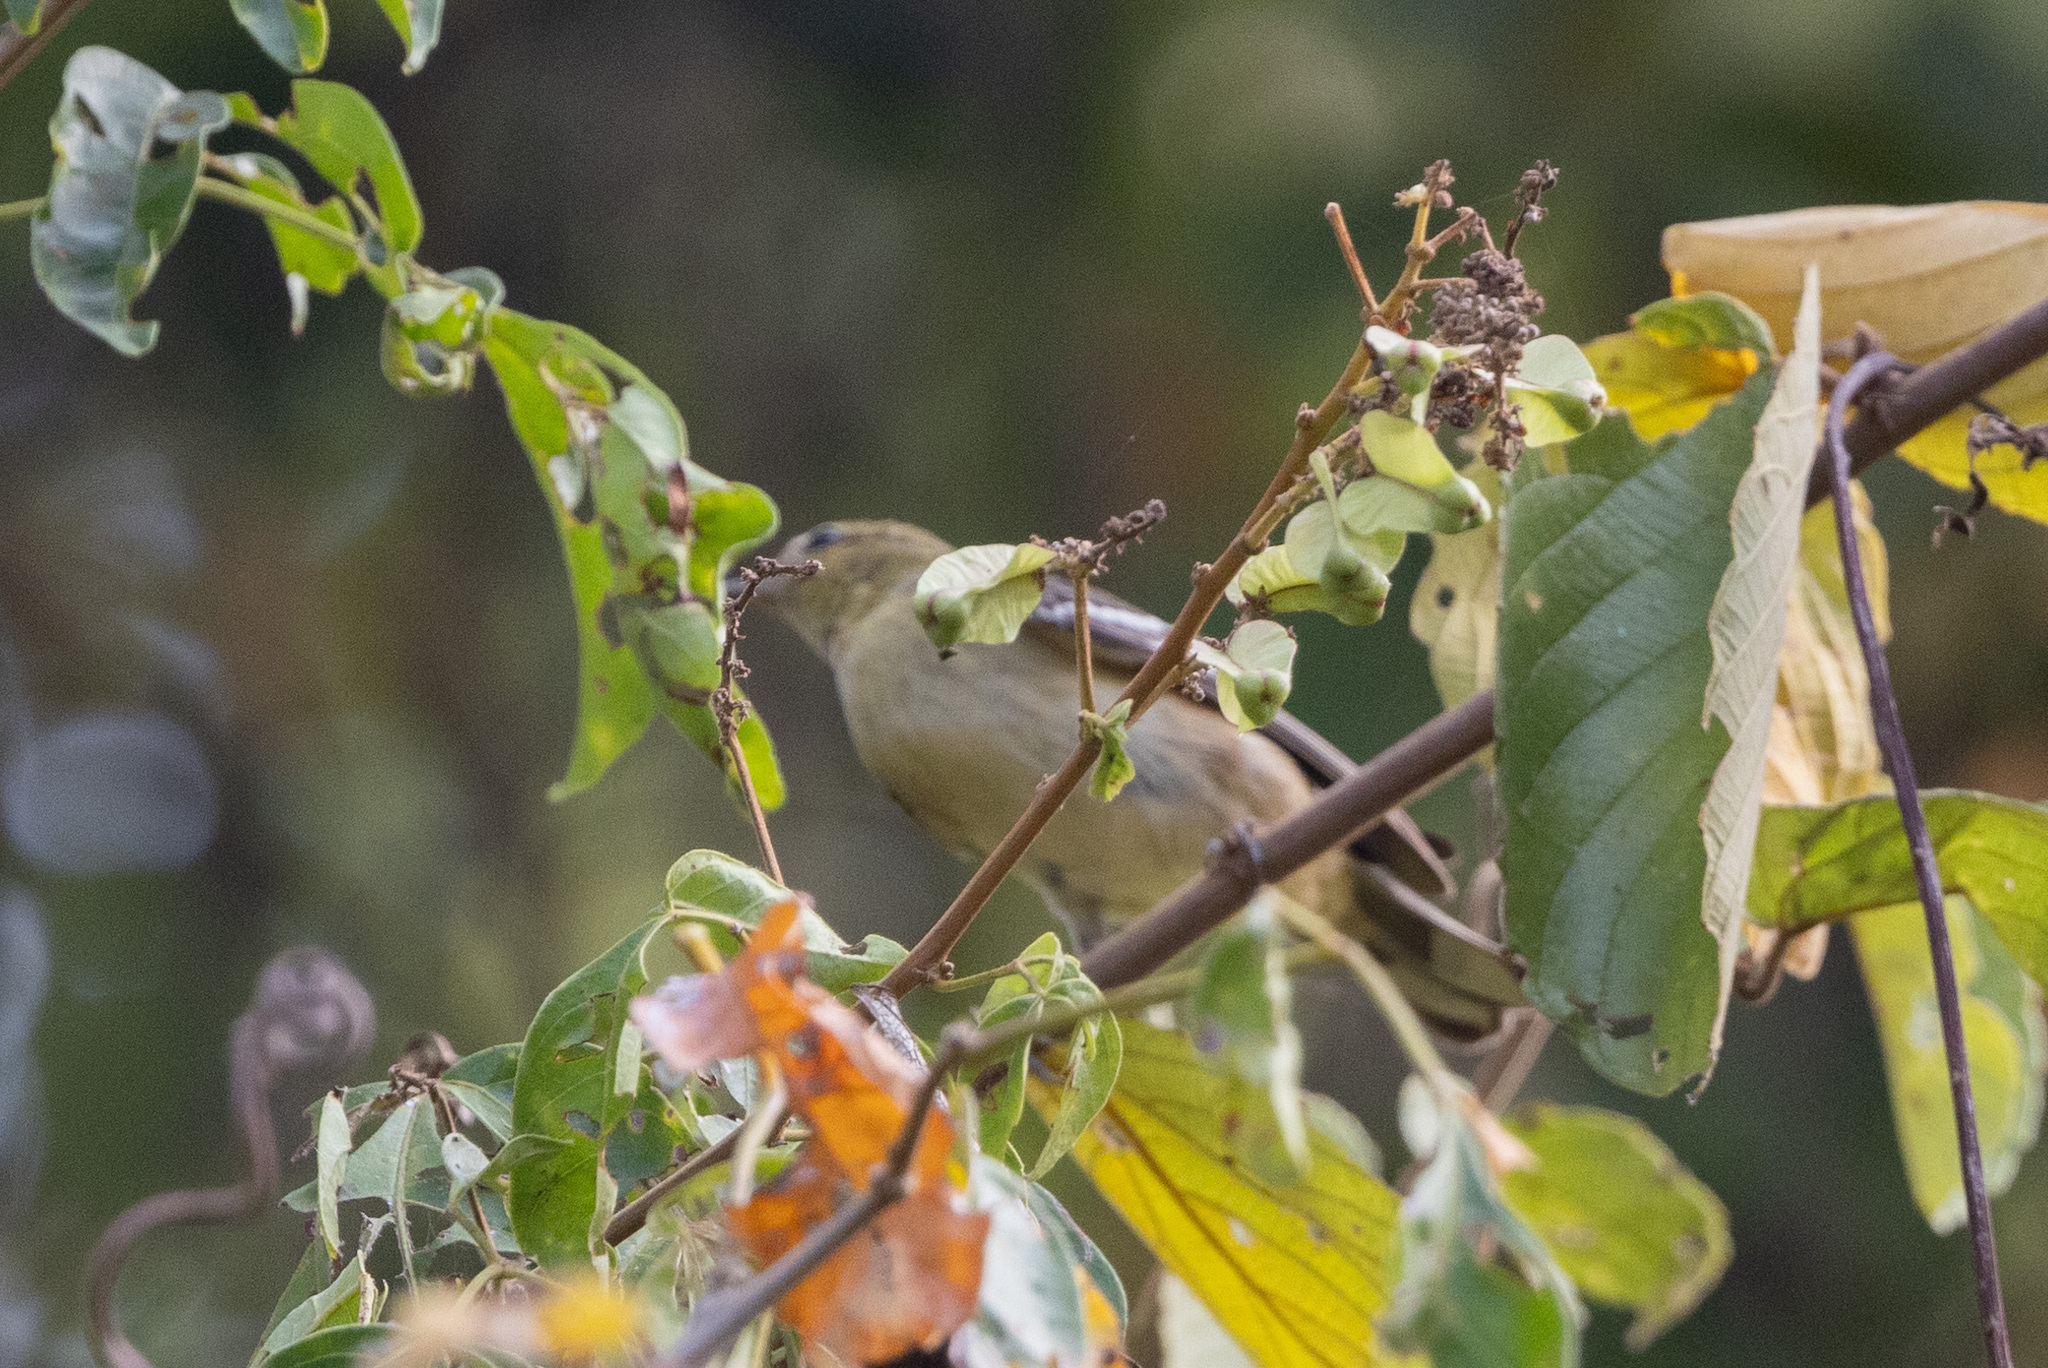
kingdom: Animalia
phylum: Chordata
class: Aves
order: Passeriformes
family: Parulidae
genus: Setophaga
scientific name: Setophaga castanea
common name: Bay-breasted warbler
